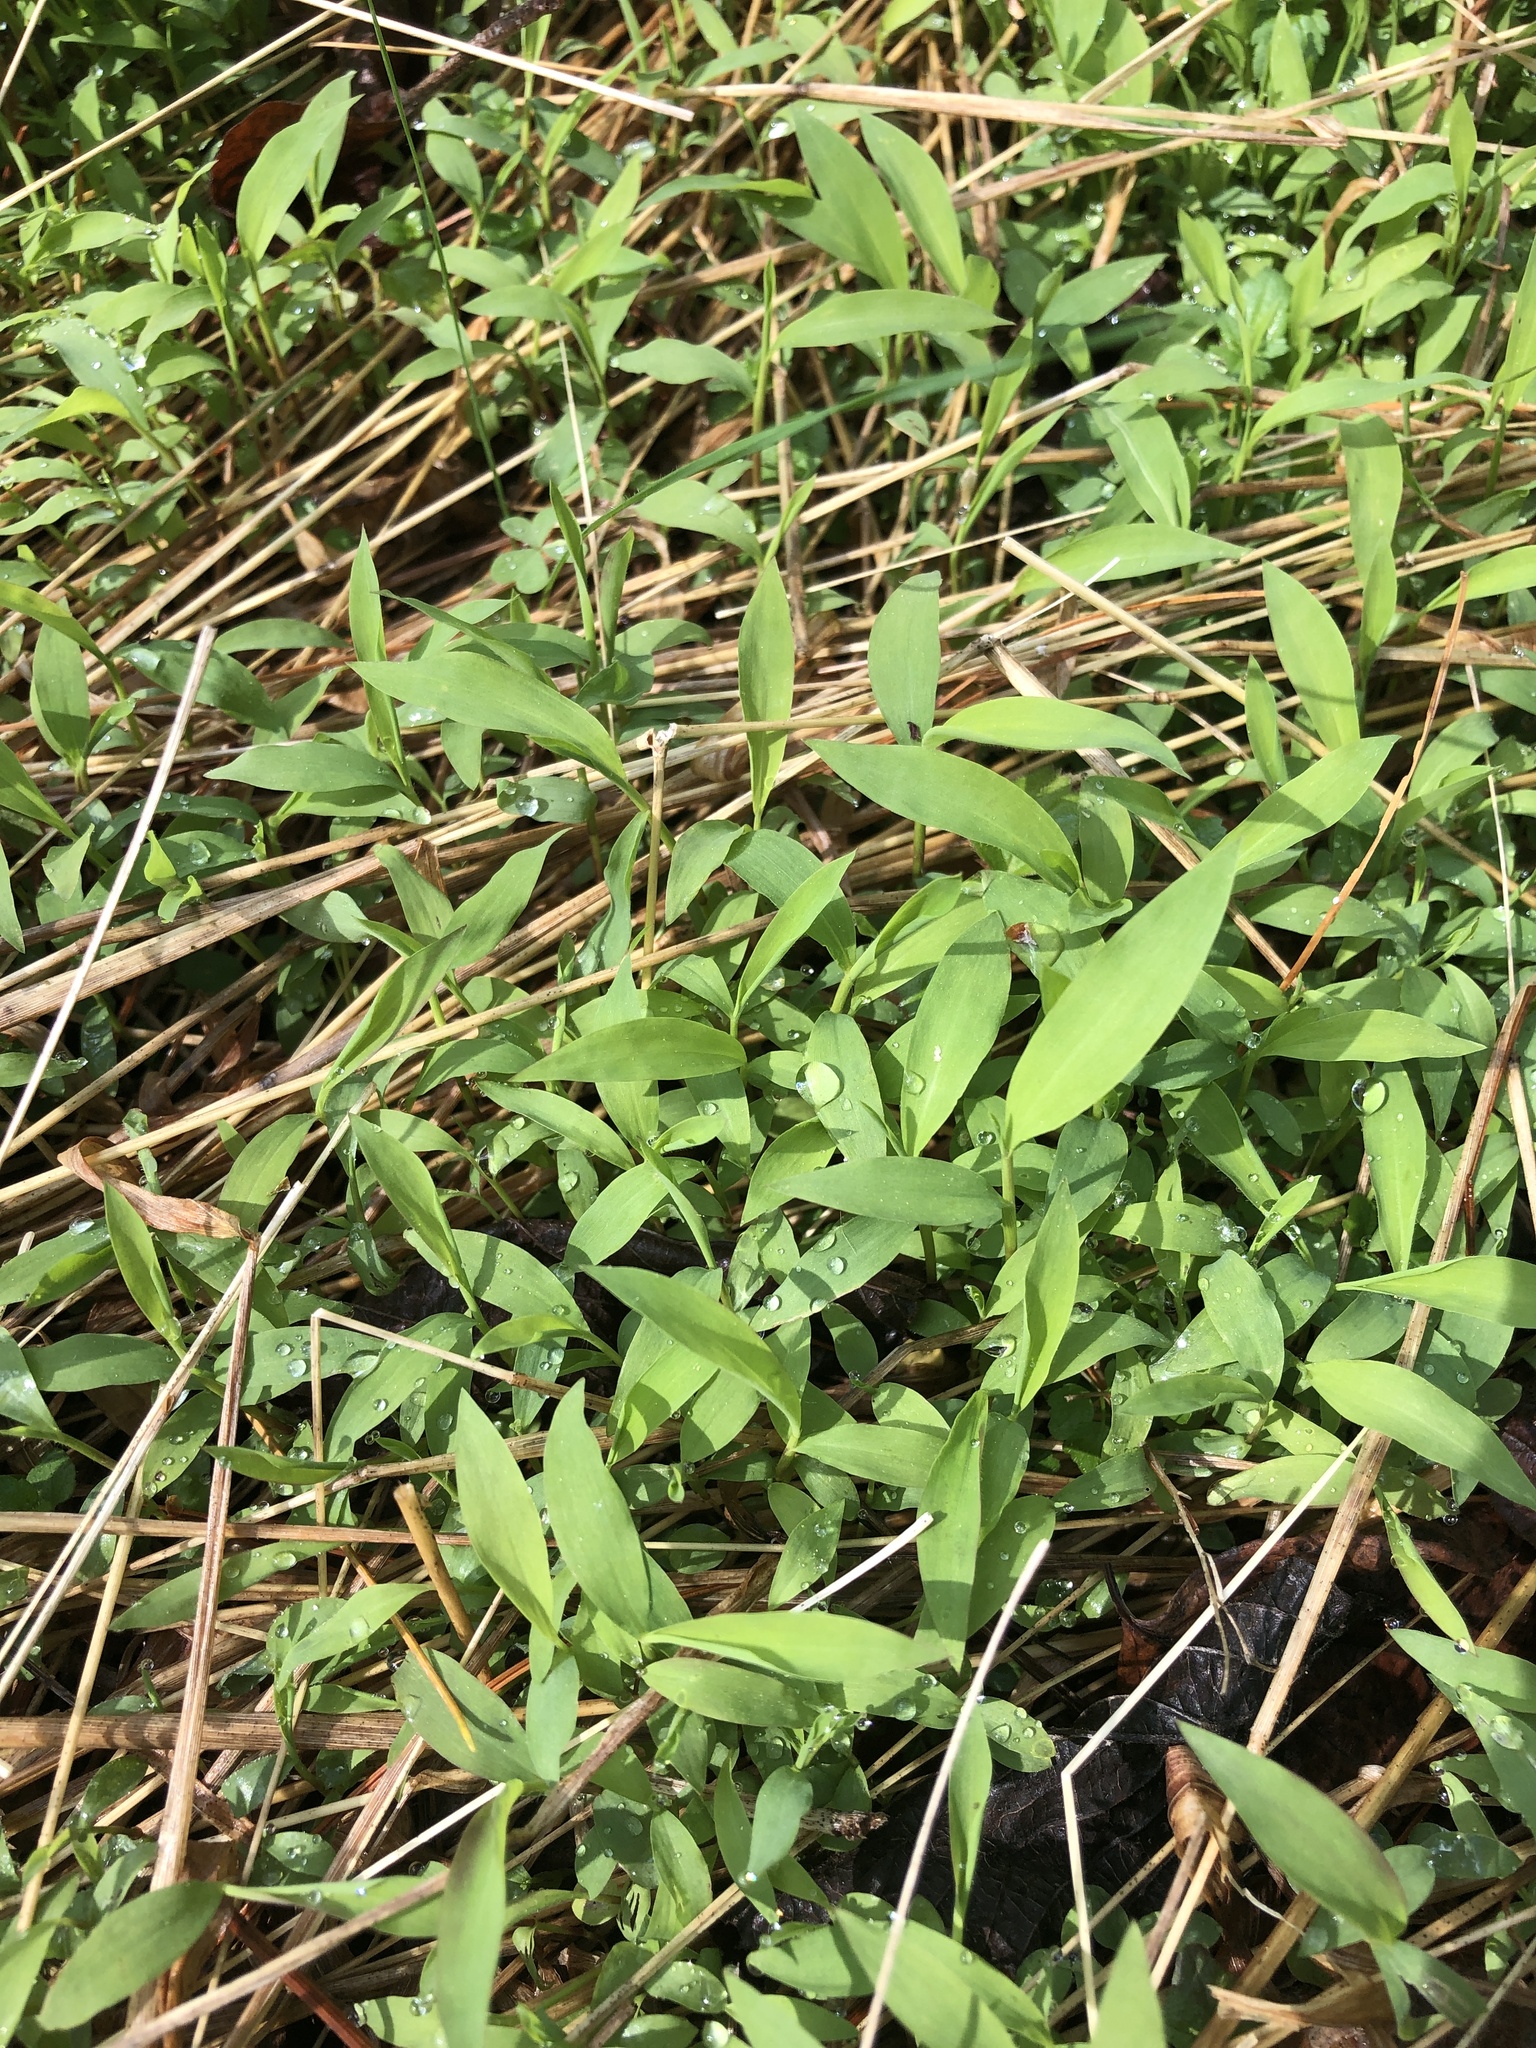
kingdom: Plantae
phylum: Tracheophyta
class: Liliopsida
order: Poales
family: Poaceae
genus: Microstegium
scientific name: Microstegium vimineum
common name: Japanese stiltgrass
